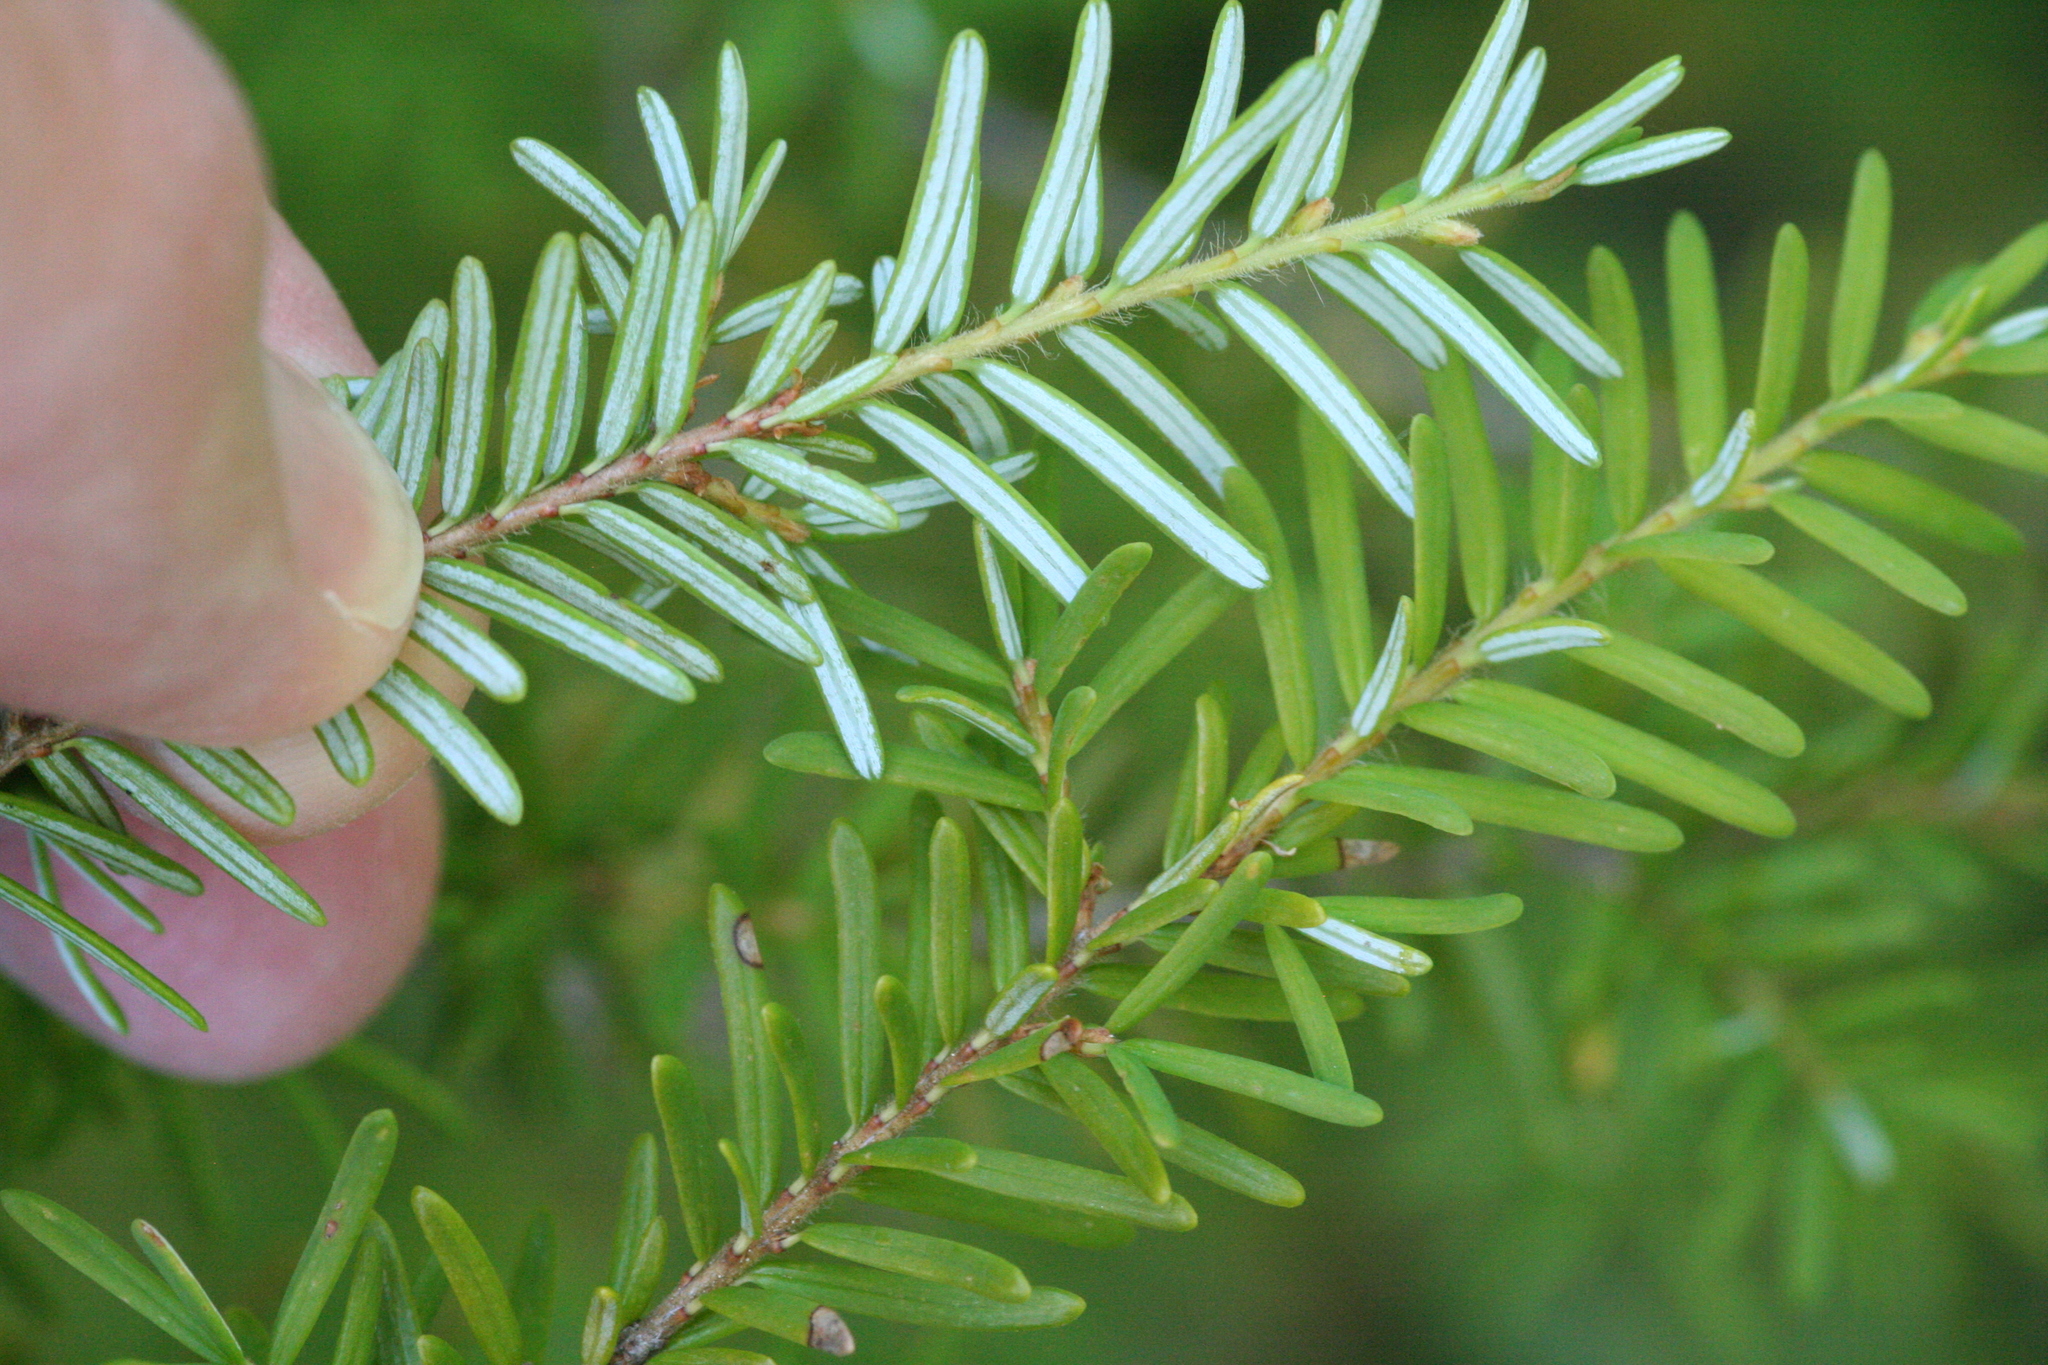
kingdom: Plantae
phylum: Tracheophyta
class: Pinopsida
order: Pinales
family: Pinaceae
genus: Tsuga
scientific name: Tsuga heterophylla
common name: Western hemlock
